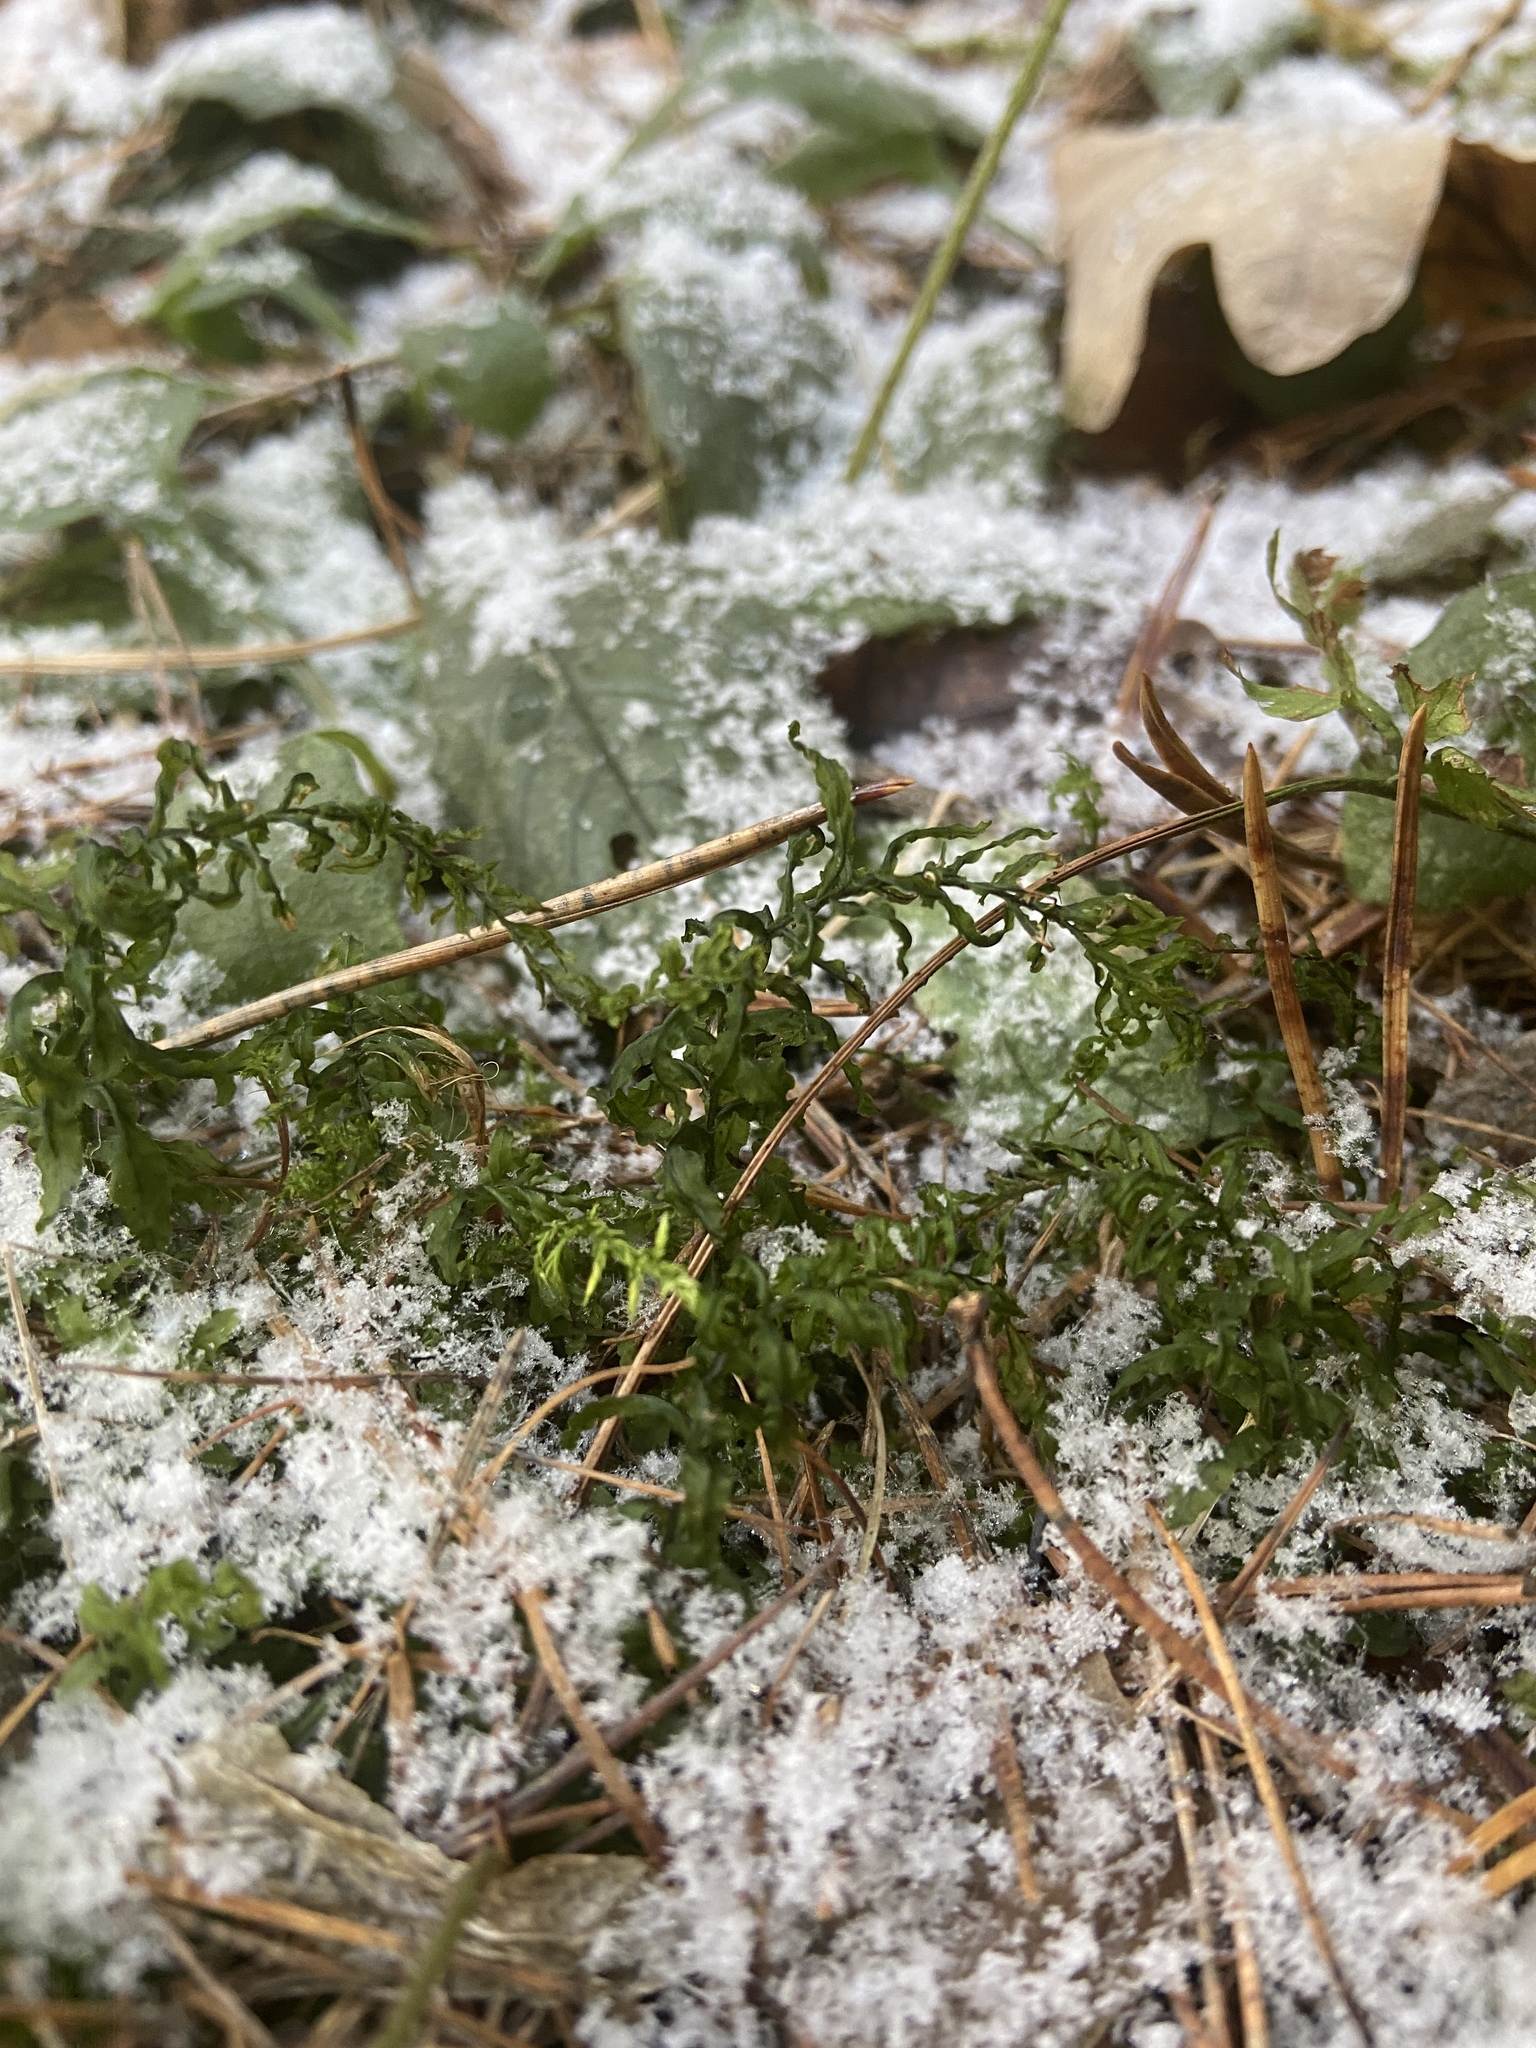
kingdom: Plantae
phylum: Bryophyta
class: Bryopsida
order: Bryales
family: Mniaceae
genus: Plagiomnium
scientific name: Plagiomnium undulatum
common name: Hart's-tongue thyme-moss
